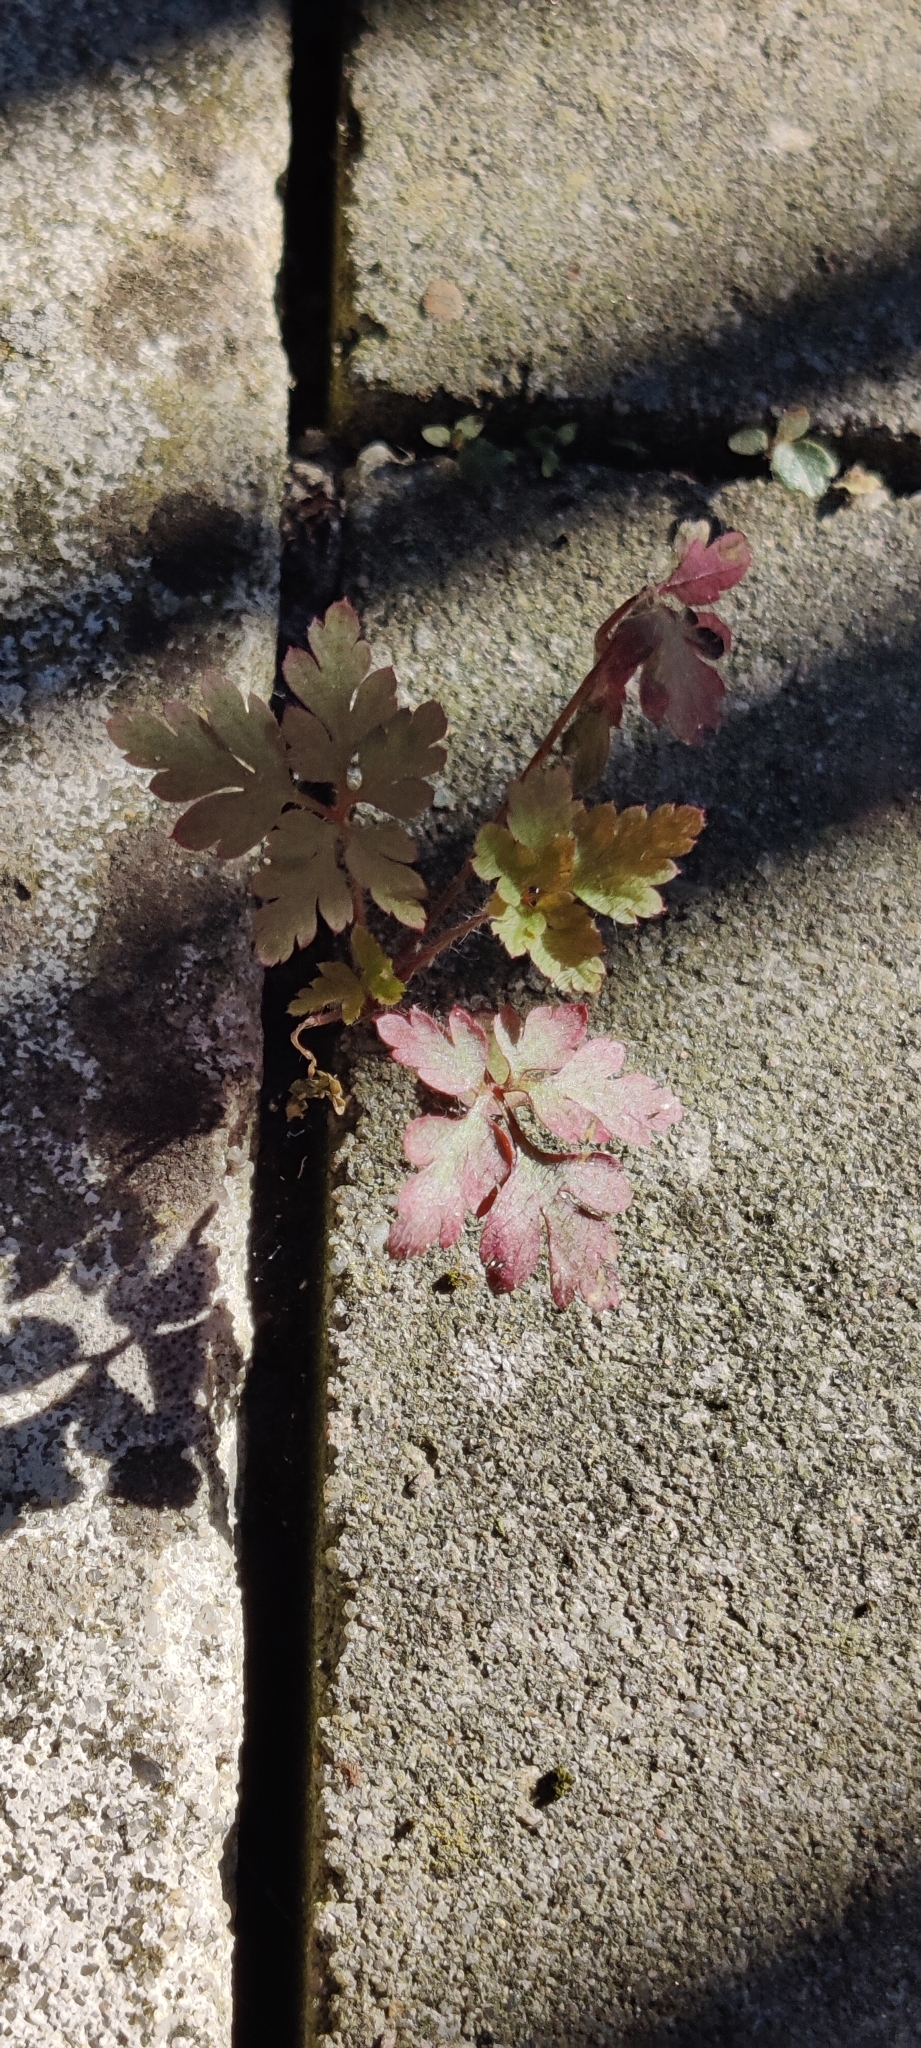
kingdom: Plantae
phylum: Tracheophyta
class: Magnoliopsida
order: Geraniales
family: Geraniaceae
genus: Geranium
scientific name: Geranium robertianum
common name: Herb-robert
